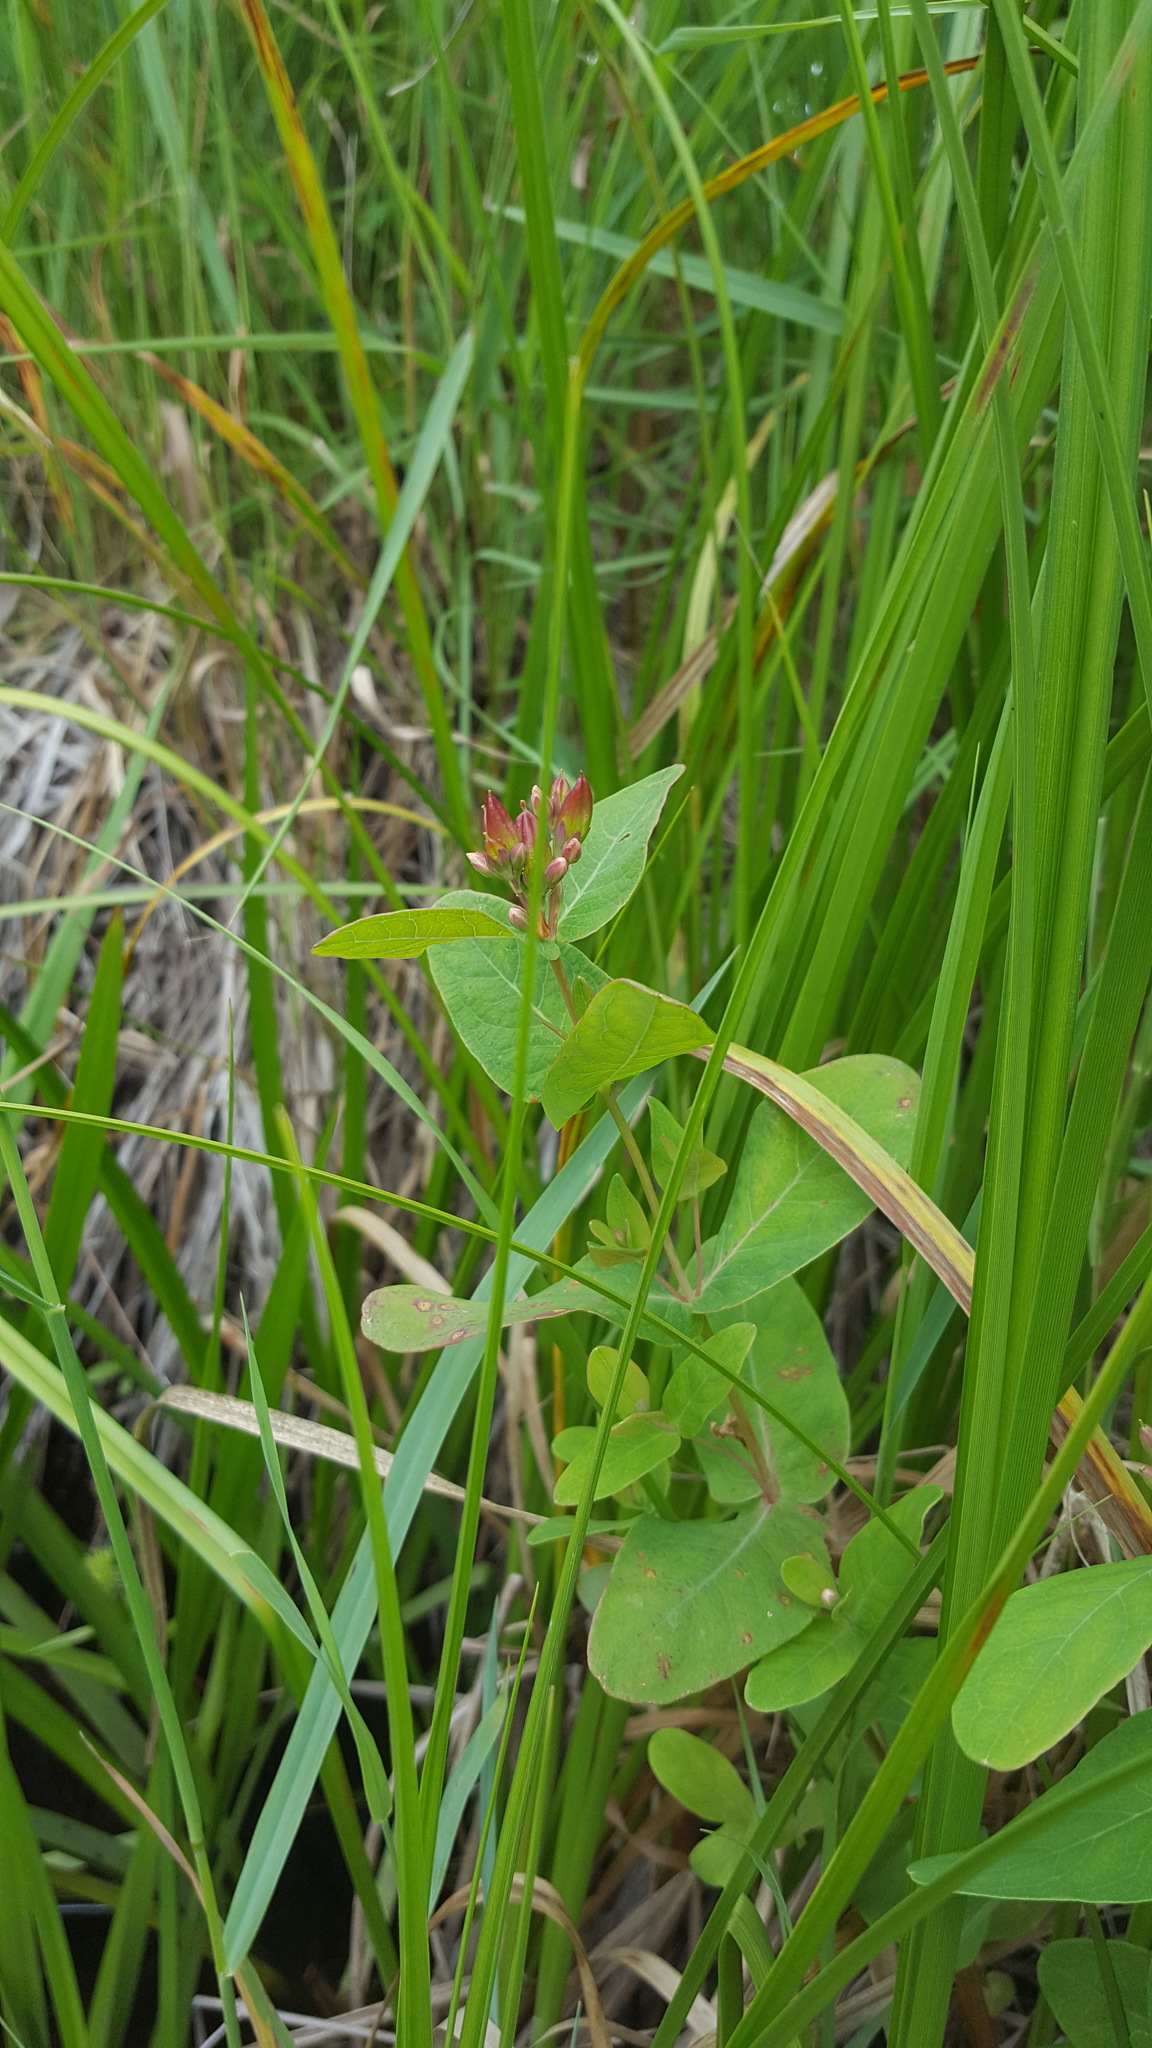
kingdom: Plantae
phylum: Tracheophyta
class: Magnoliopsida
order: Malpighiales
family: Hypericaceae
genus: Triadenum
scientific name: Triadenum fraseri
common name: Fraser's marsh st. johnswort
